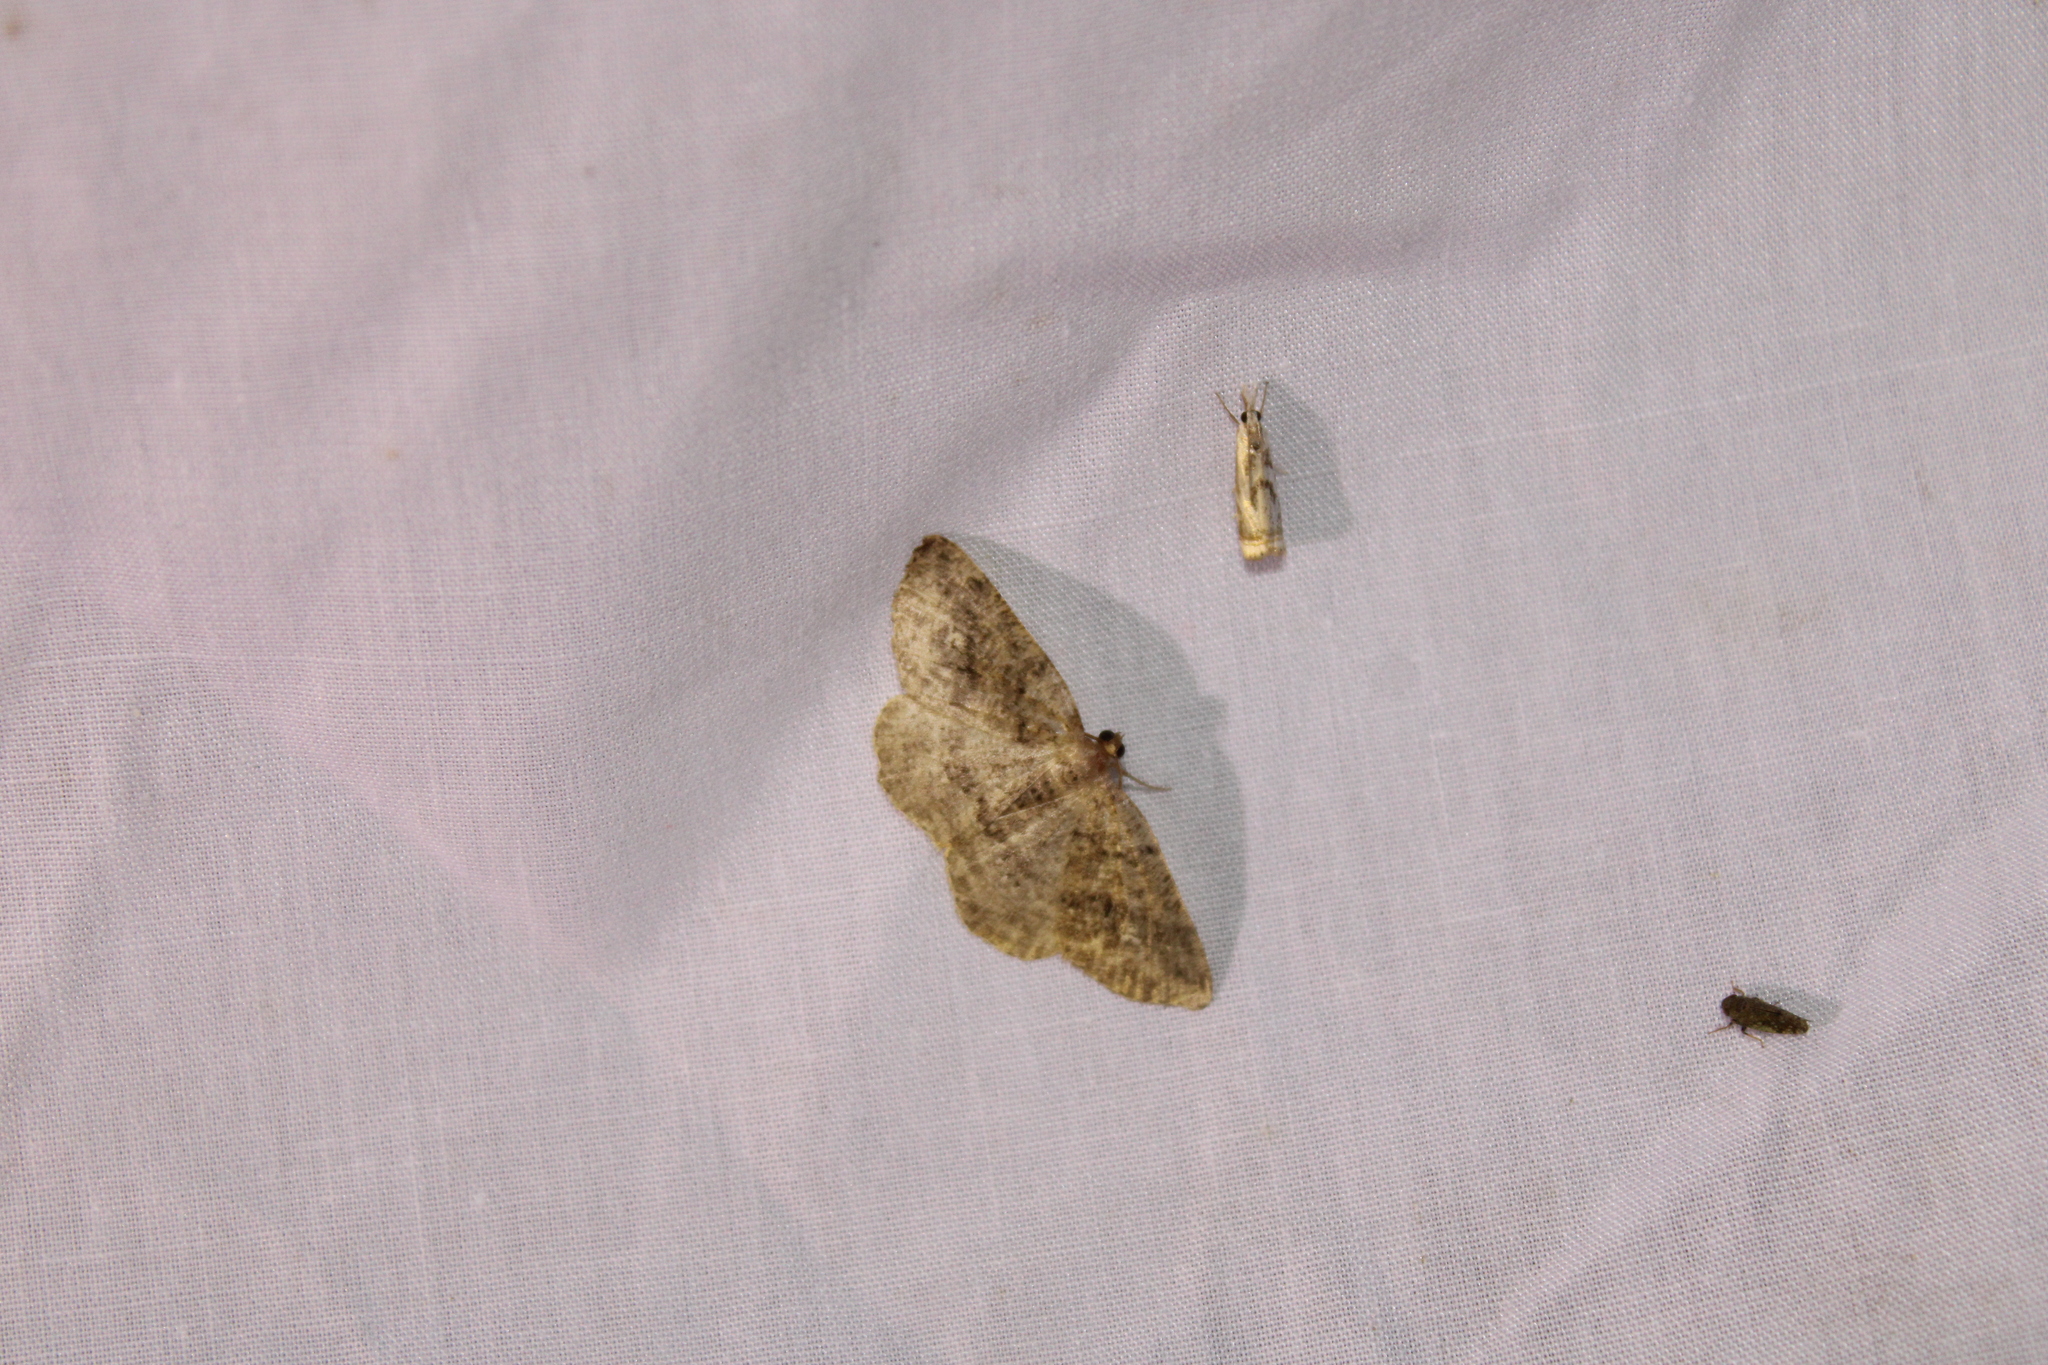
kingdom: Animalia
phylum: Arthropoda
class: Insecta
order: Lepidoptera
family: Geometridae
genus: Homochlodes
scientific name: Homochlodes fritillaria
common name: Pale homochlodes
